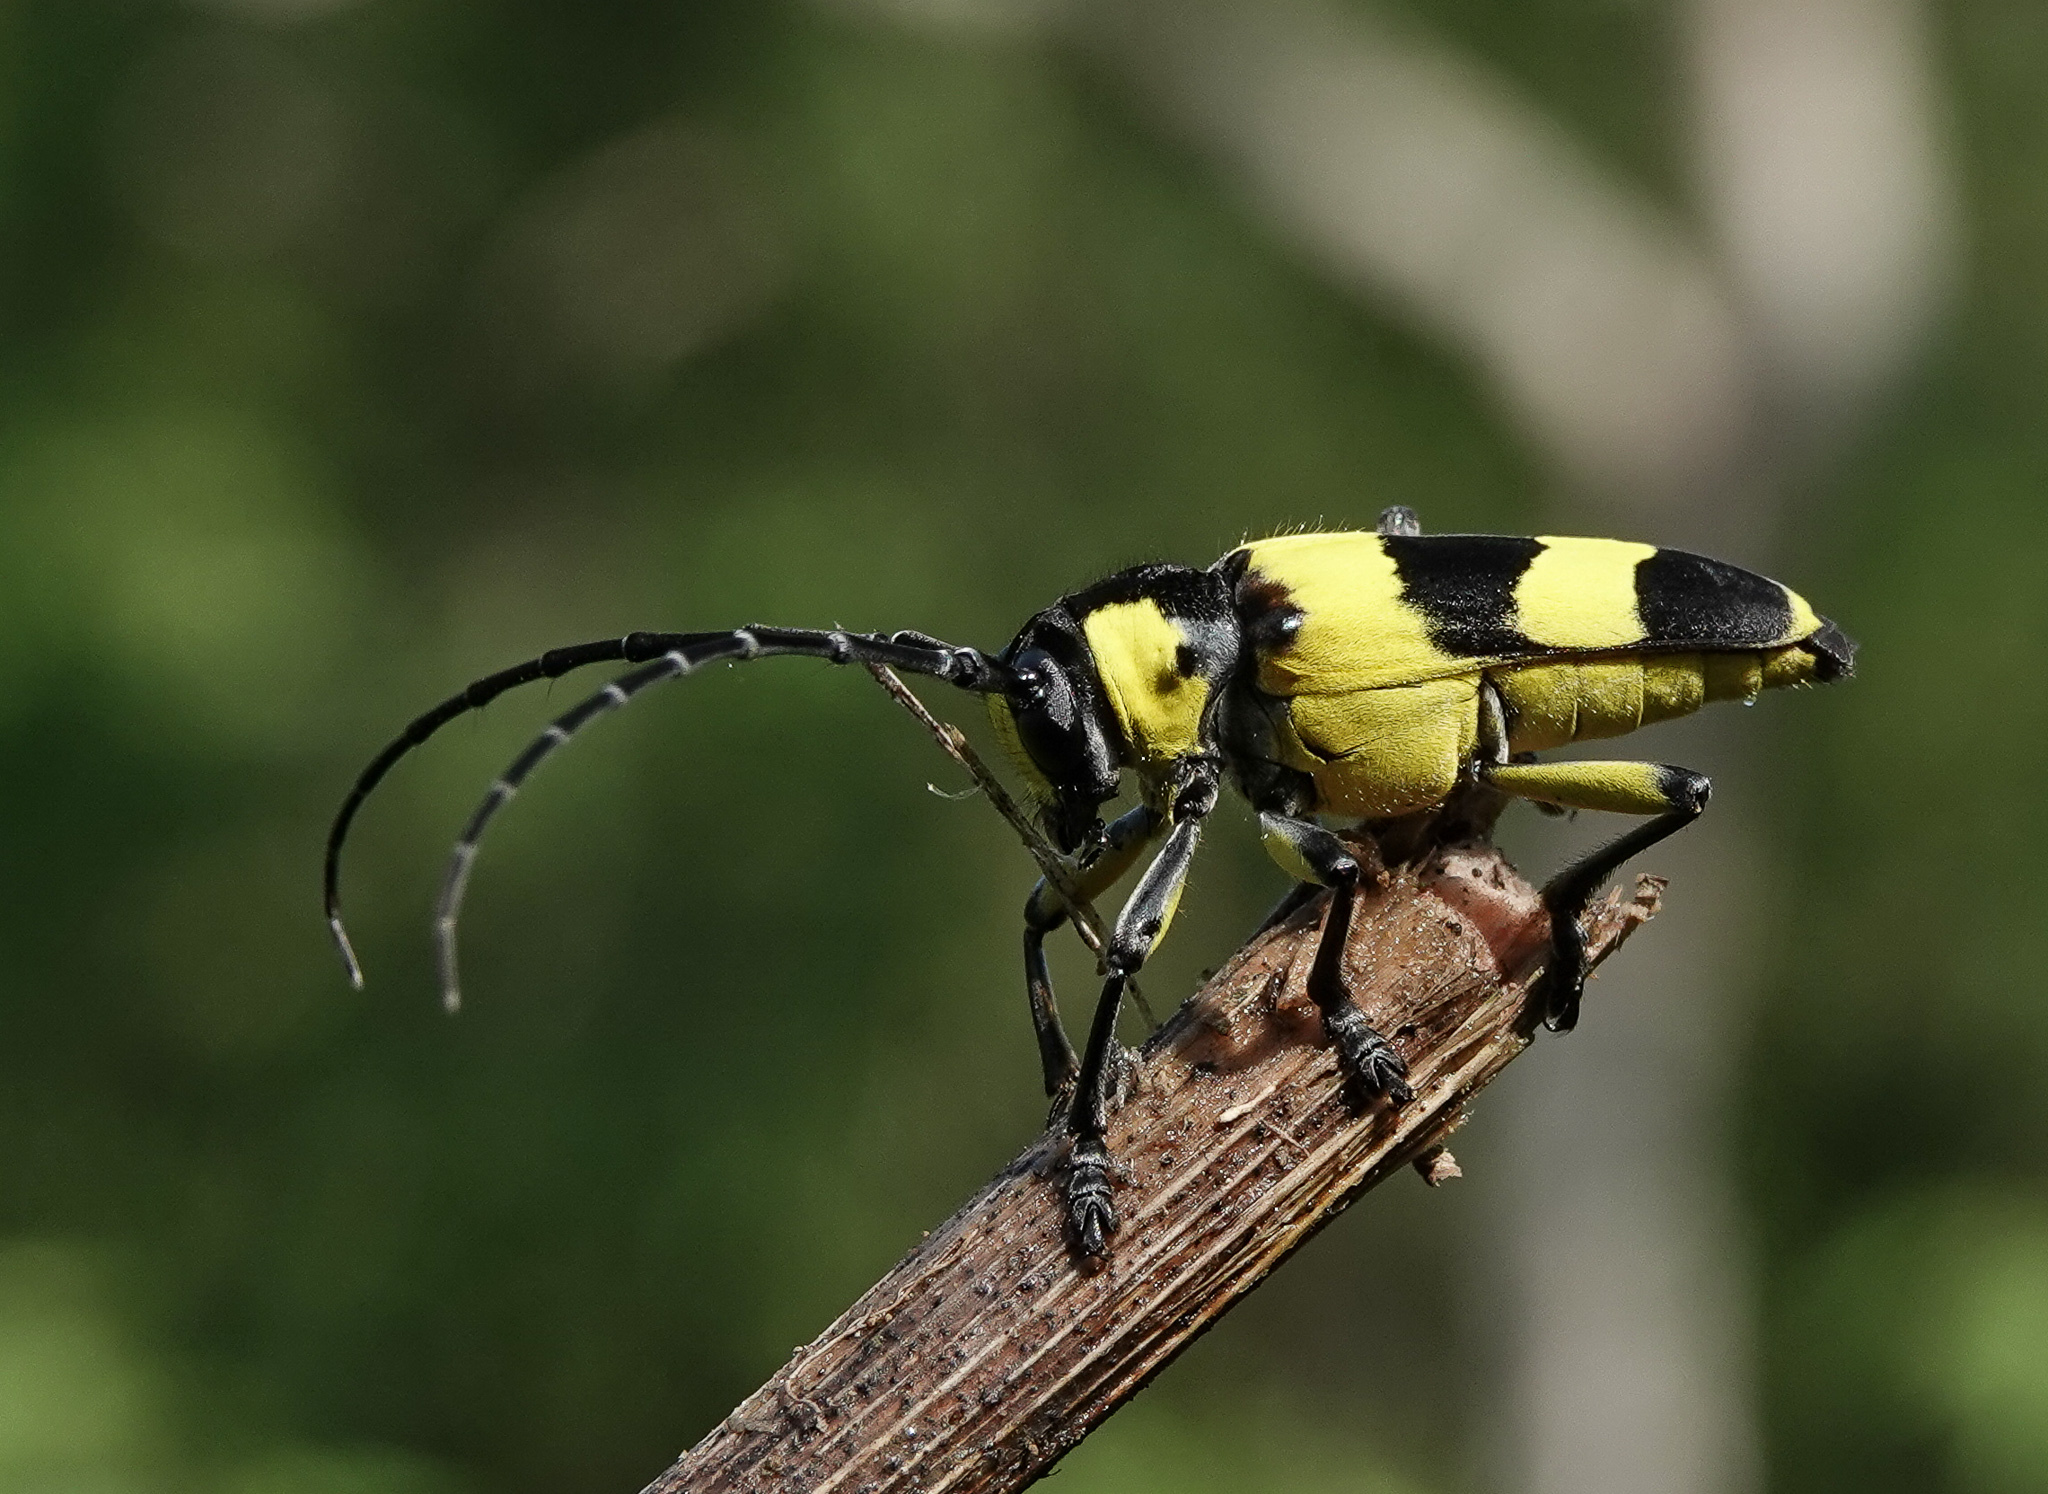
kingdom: Animalia
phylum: Arthropoda
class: Insecta
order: Coleoptera
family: Cerambycidae
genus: Thermistis
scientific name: Thermistis croceocincta
